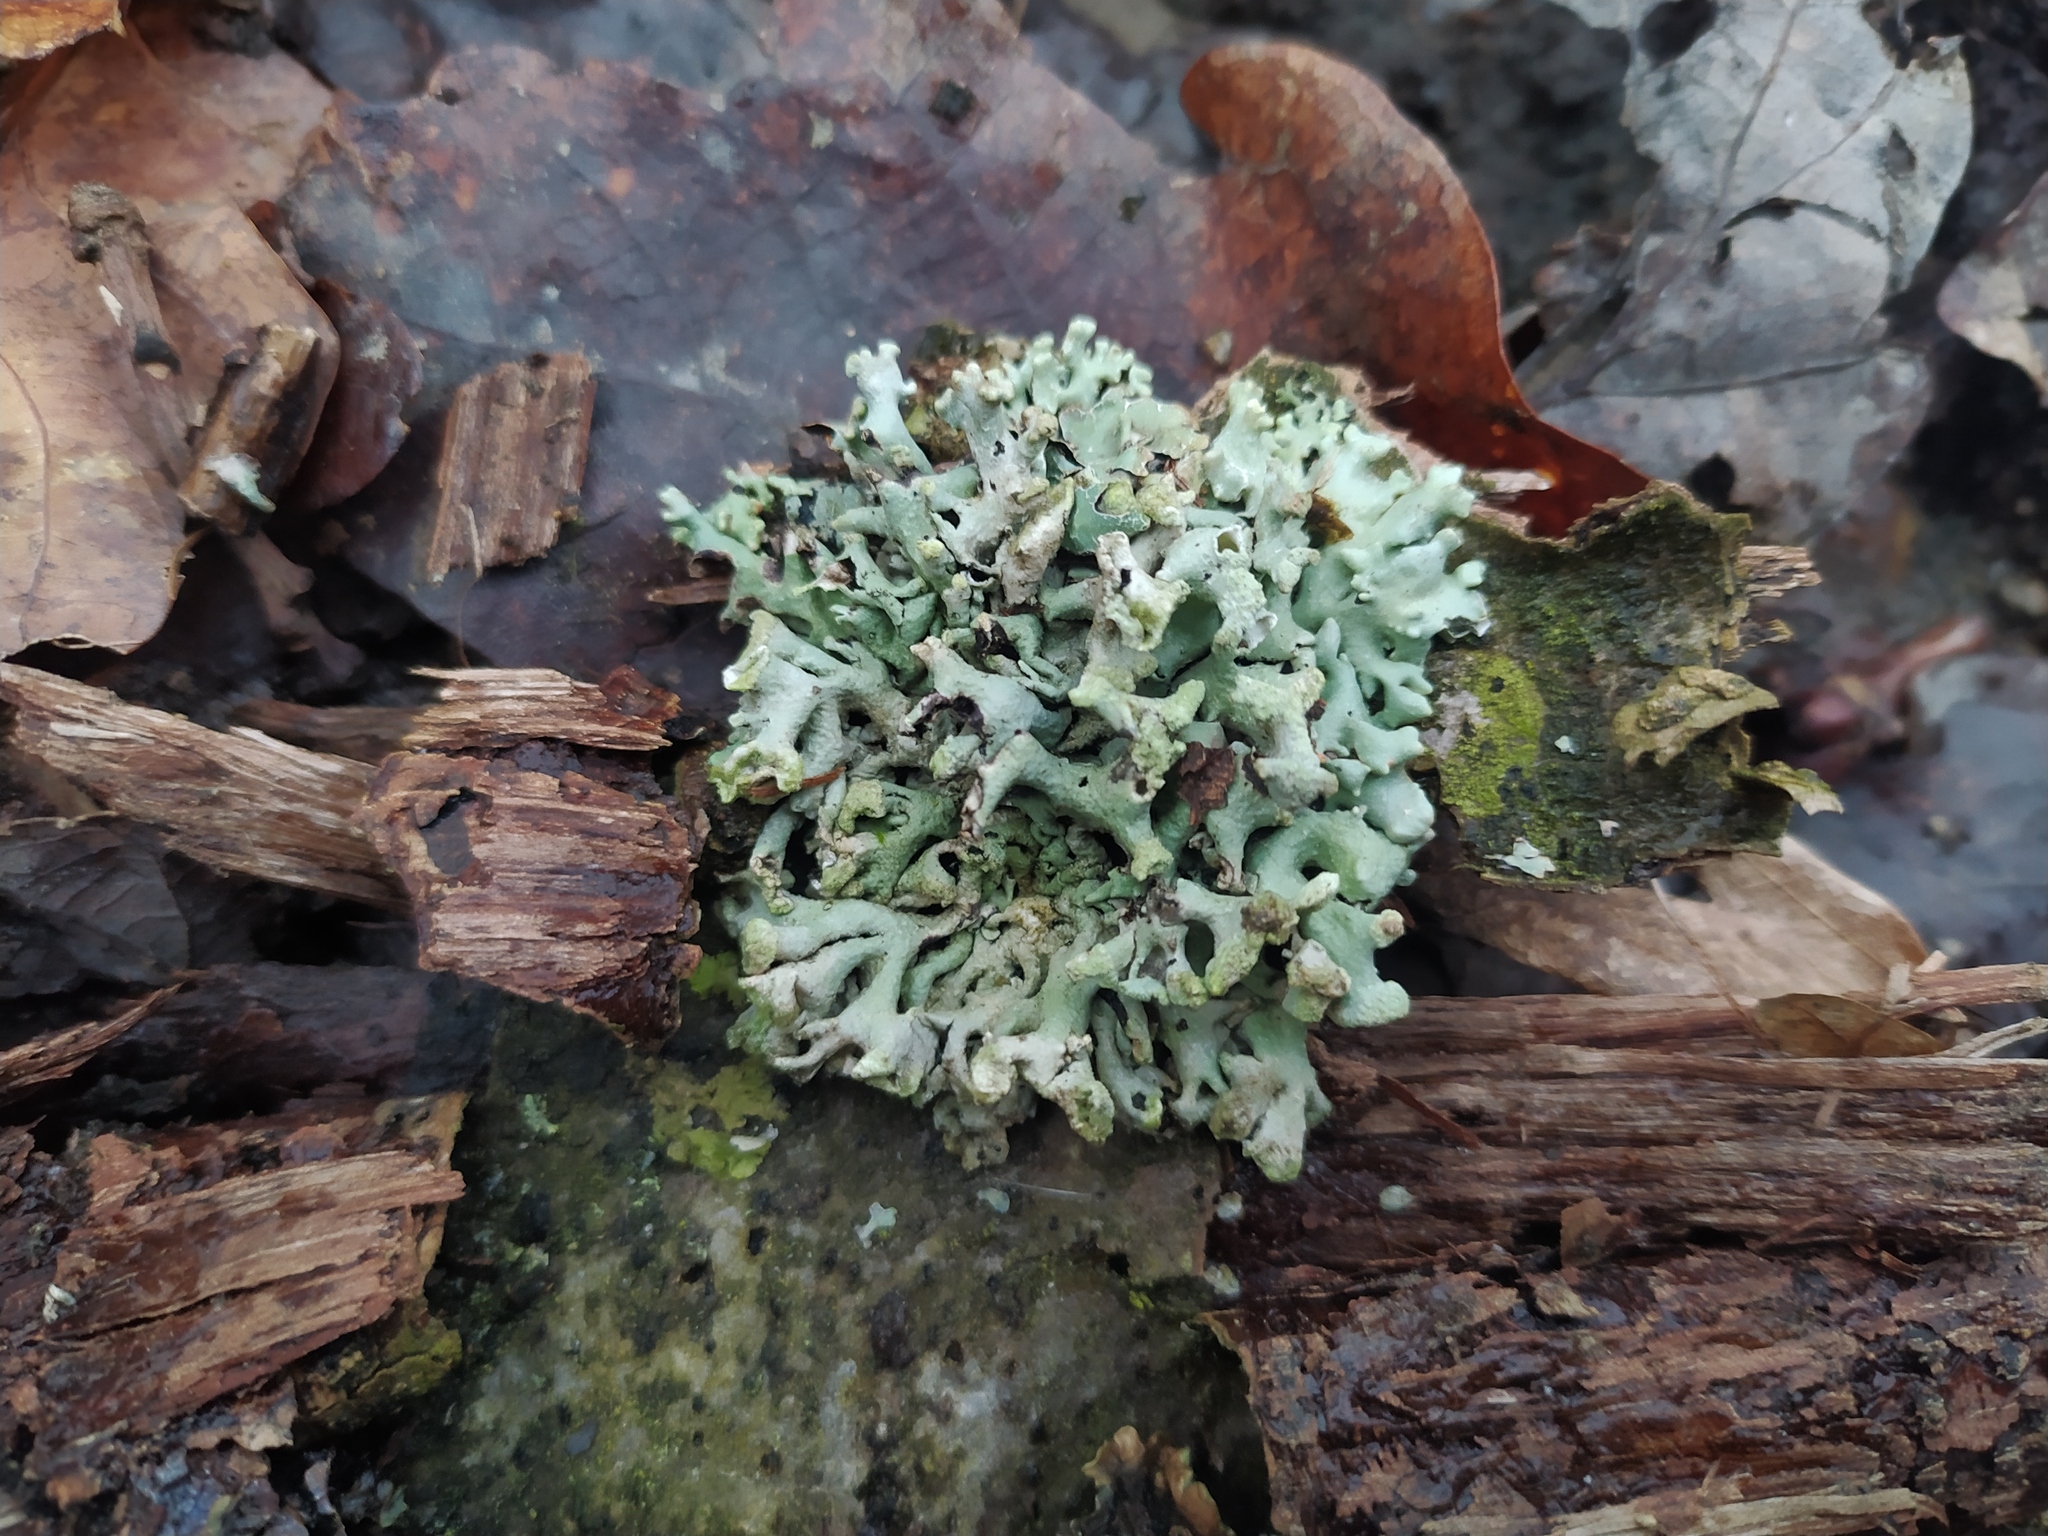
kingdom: Fungi
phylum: Ascomycota
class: Lecanoromycetes
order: Lecanorales
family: Parmeliaceae
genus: Hypogymnia
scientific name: Hypogymnia tubulosa
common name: Powder-headed tube lichen
